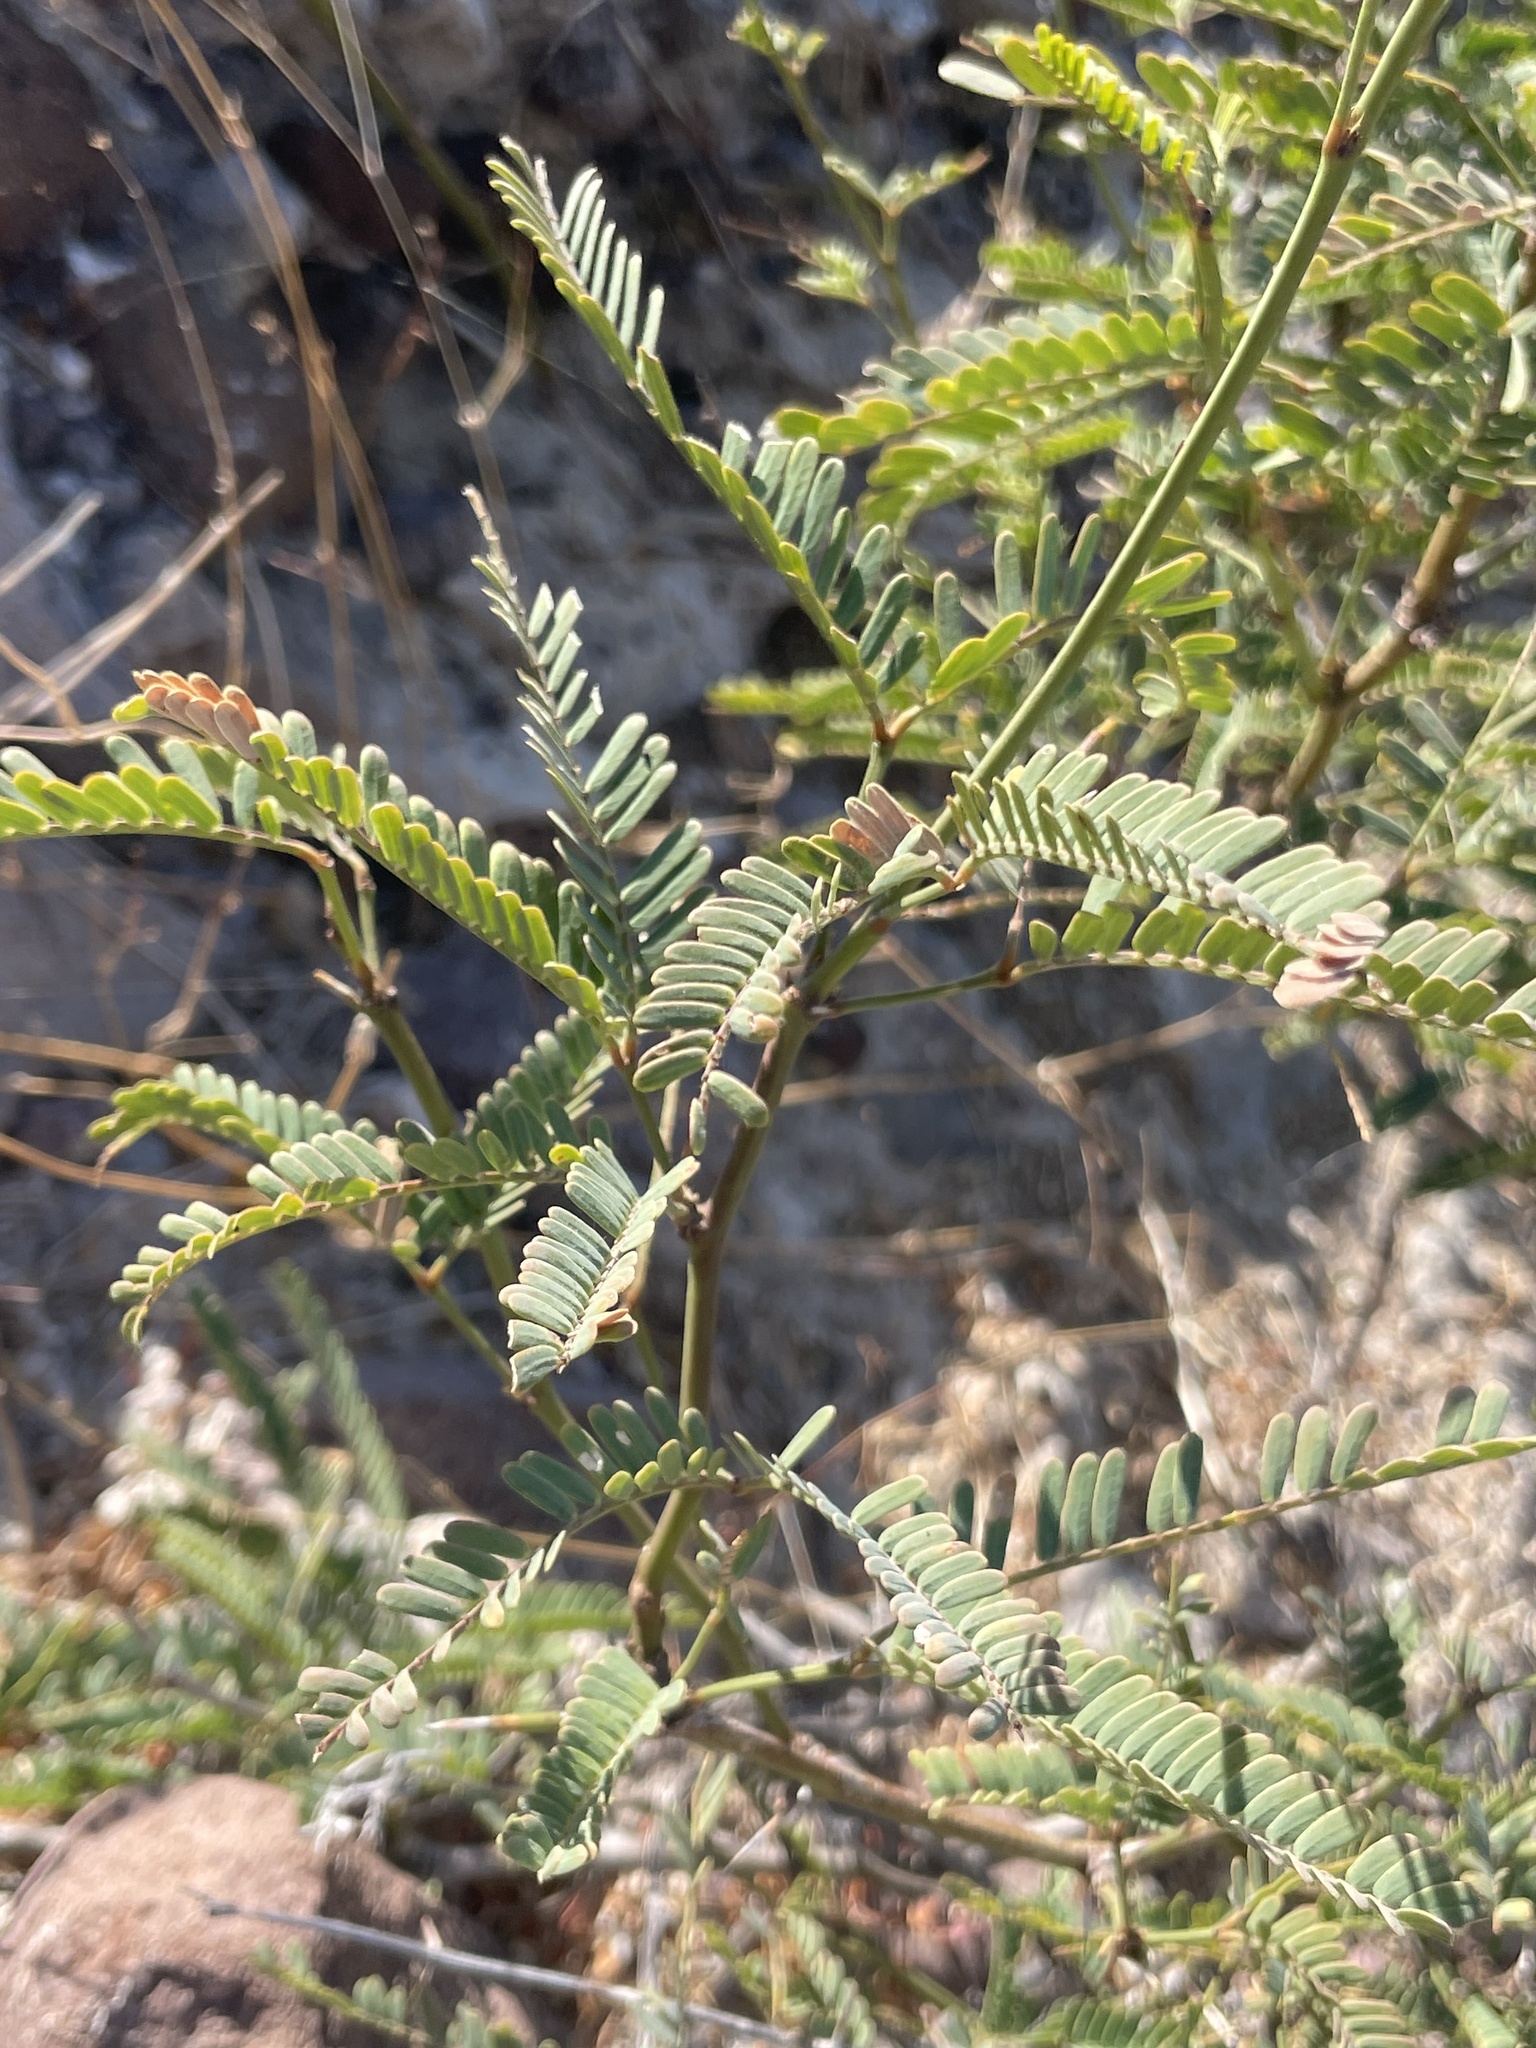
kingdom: Plantae
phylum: Tracheophyta
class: Magnoliopsida
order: Fabales
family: Fabaceae
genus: Prosopis
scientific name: Prosopis articulata
